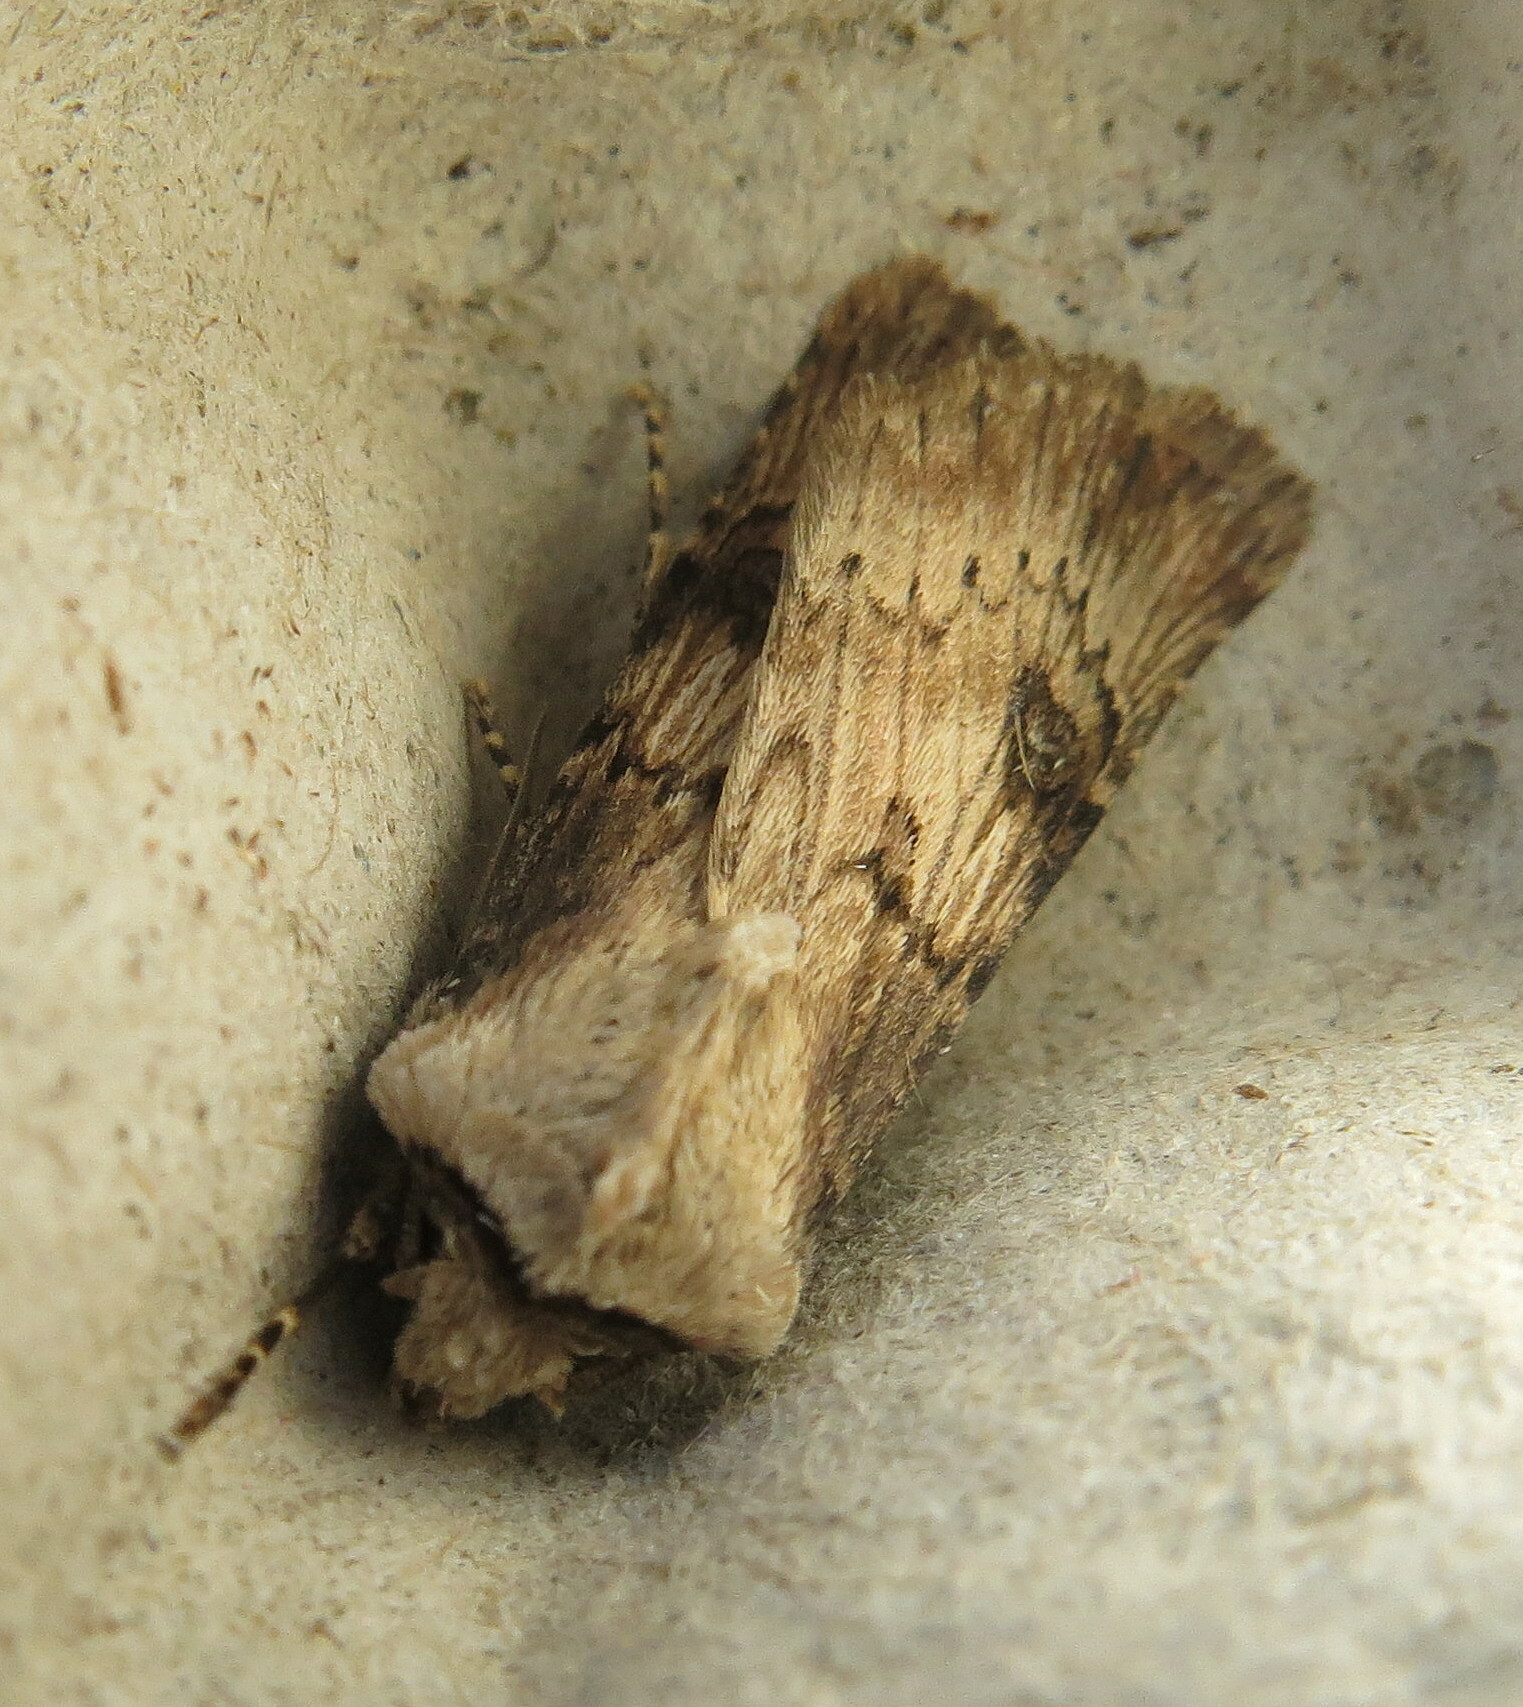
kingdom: Animalia
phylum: Arthropoda
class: Insecta
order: Lepidoptera
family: Noctuidae
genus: Agrotis
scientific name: Agrotis puta
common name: Shuttle-shaped dart
